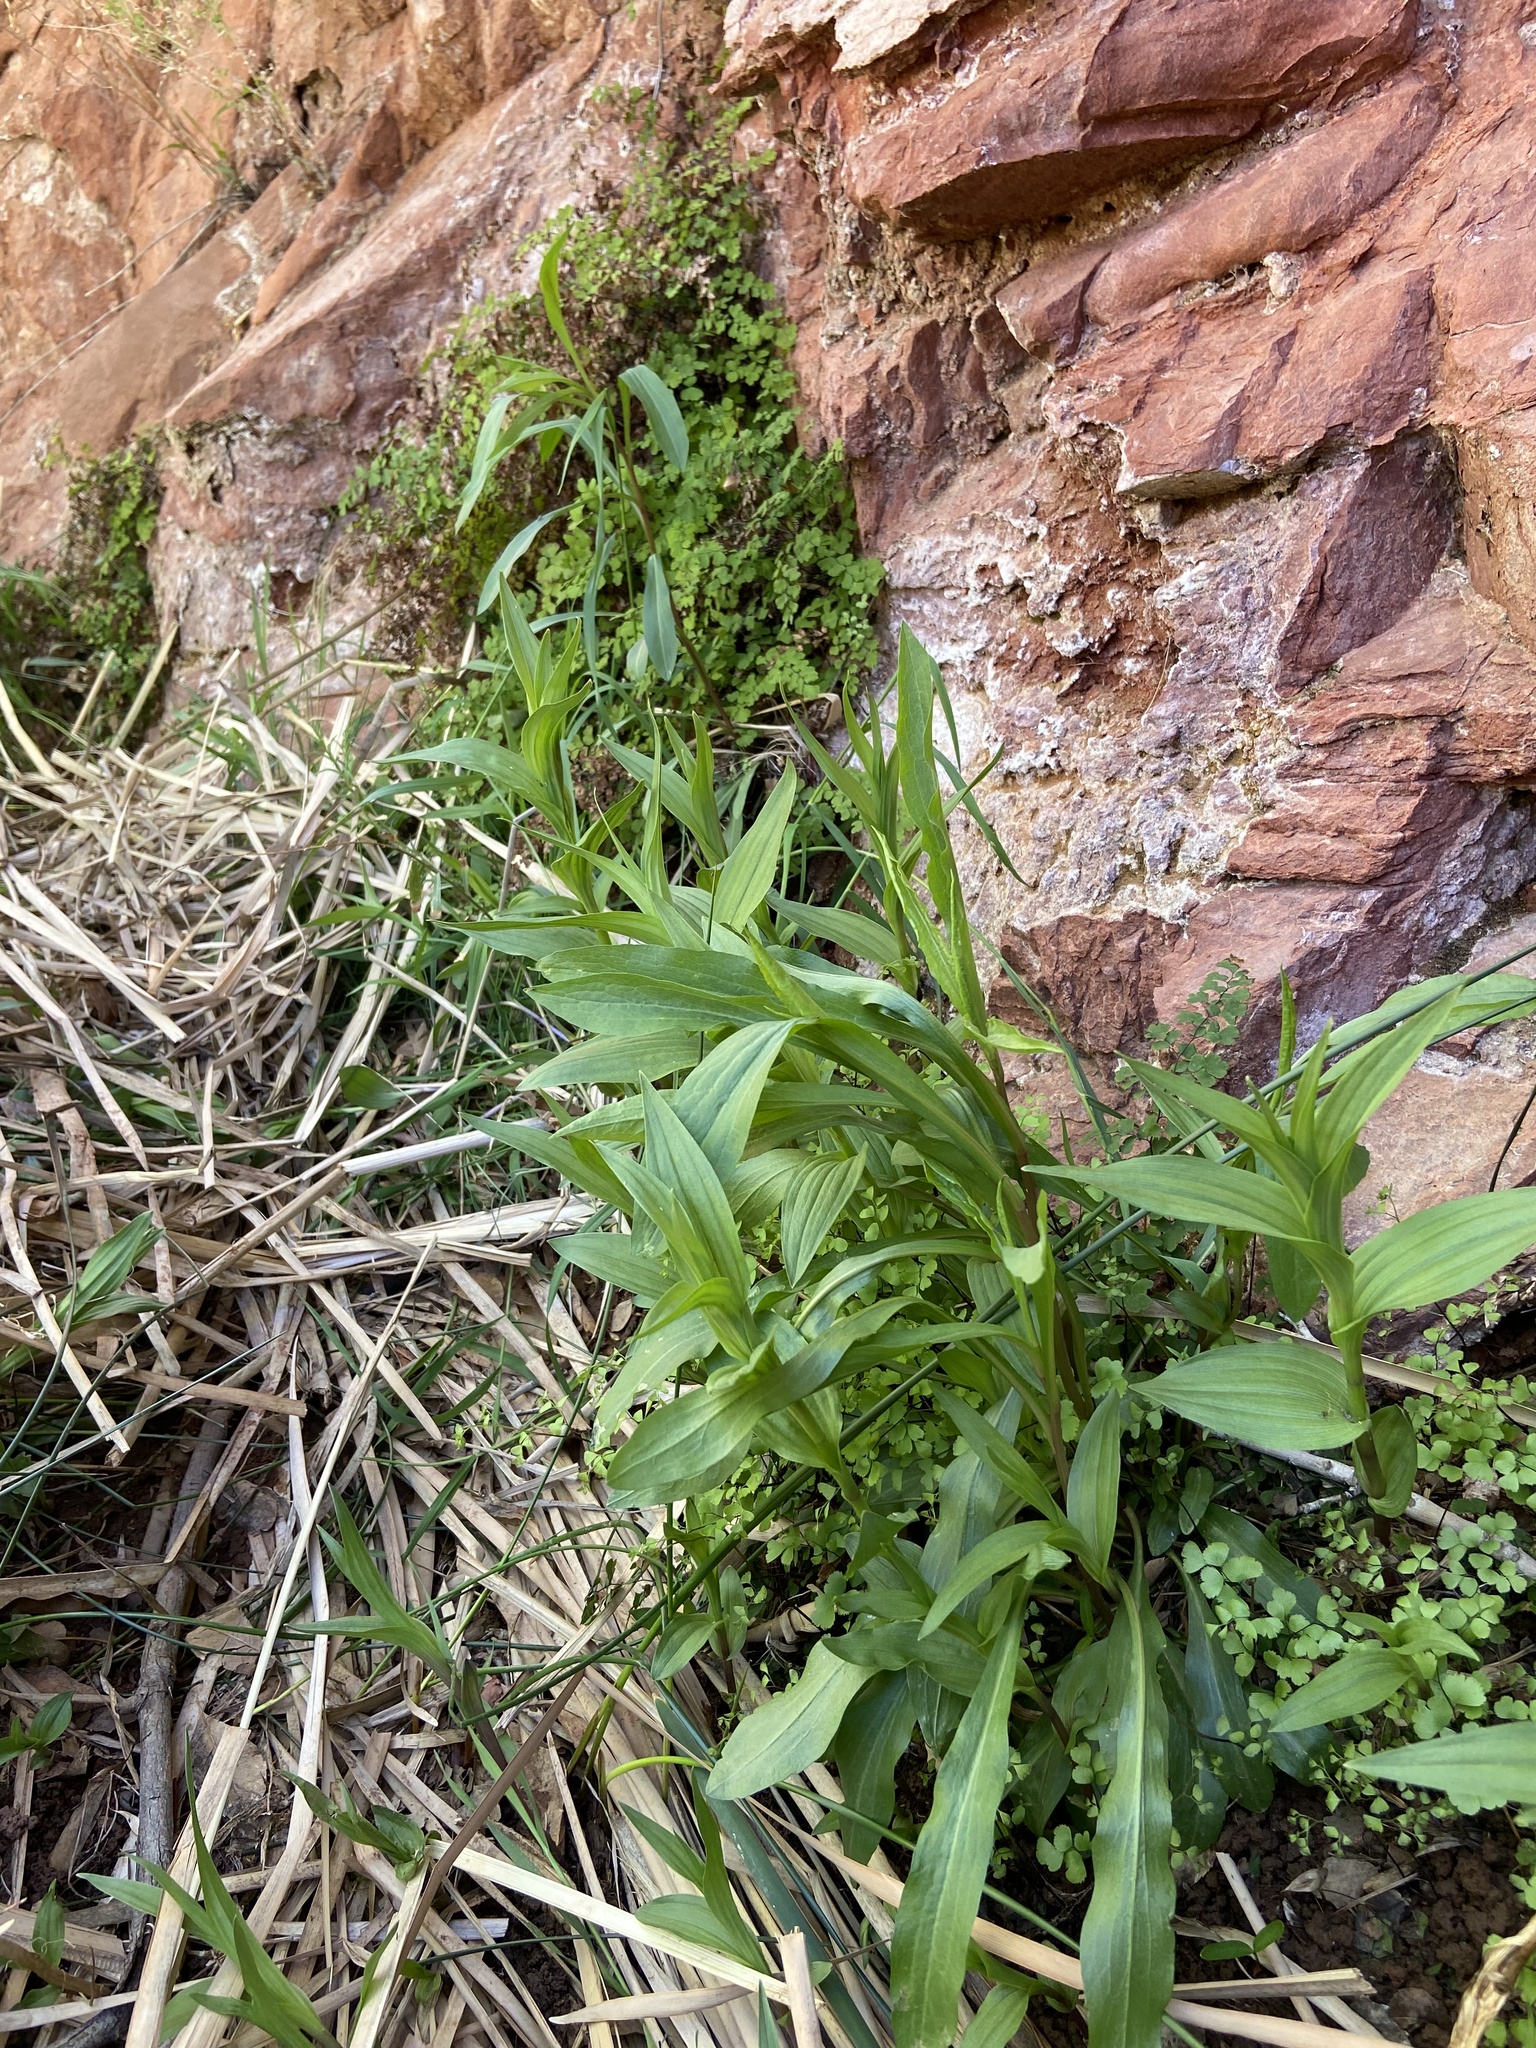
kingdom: Plantae
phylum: Tracheophyta
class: Liliopsida
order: Asparagales
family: Orchidaceae
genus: Epipactis
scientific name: Epipactis gigantea
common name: Chatterbox
